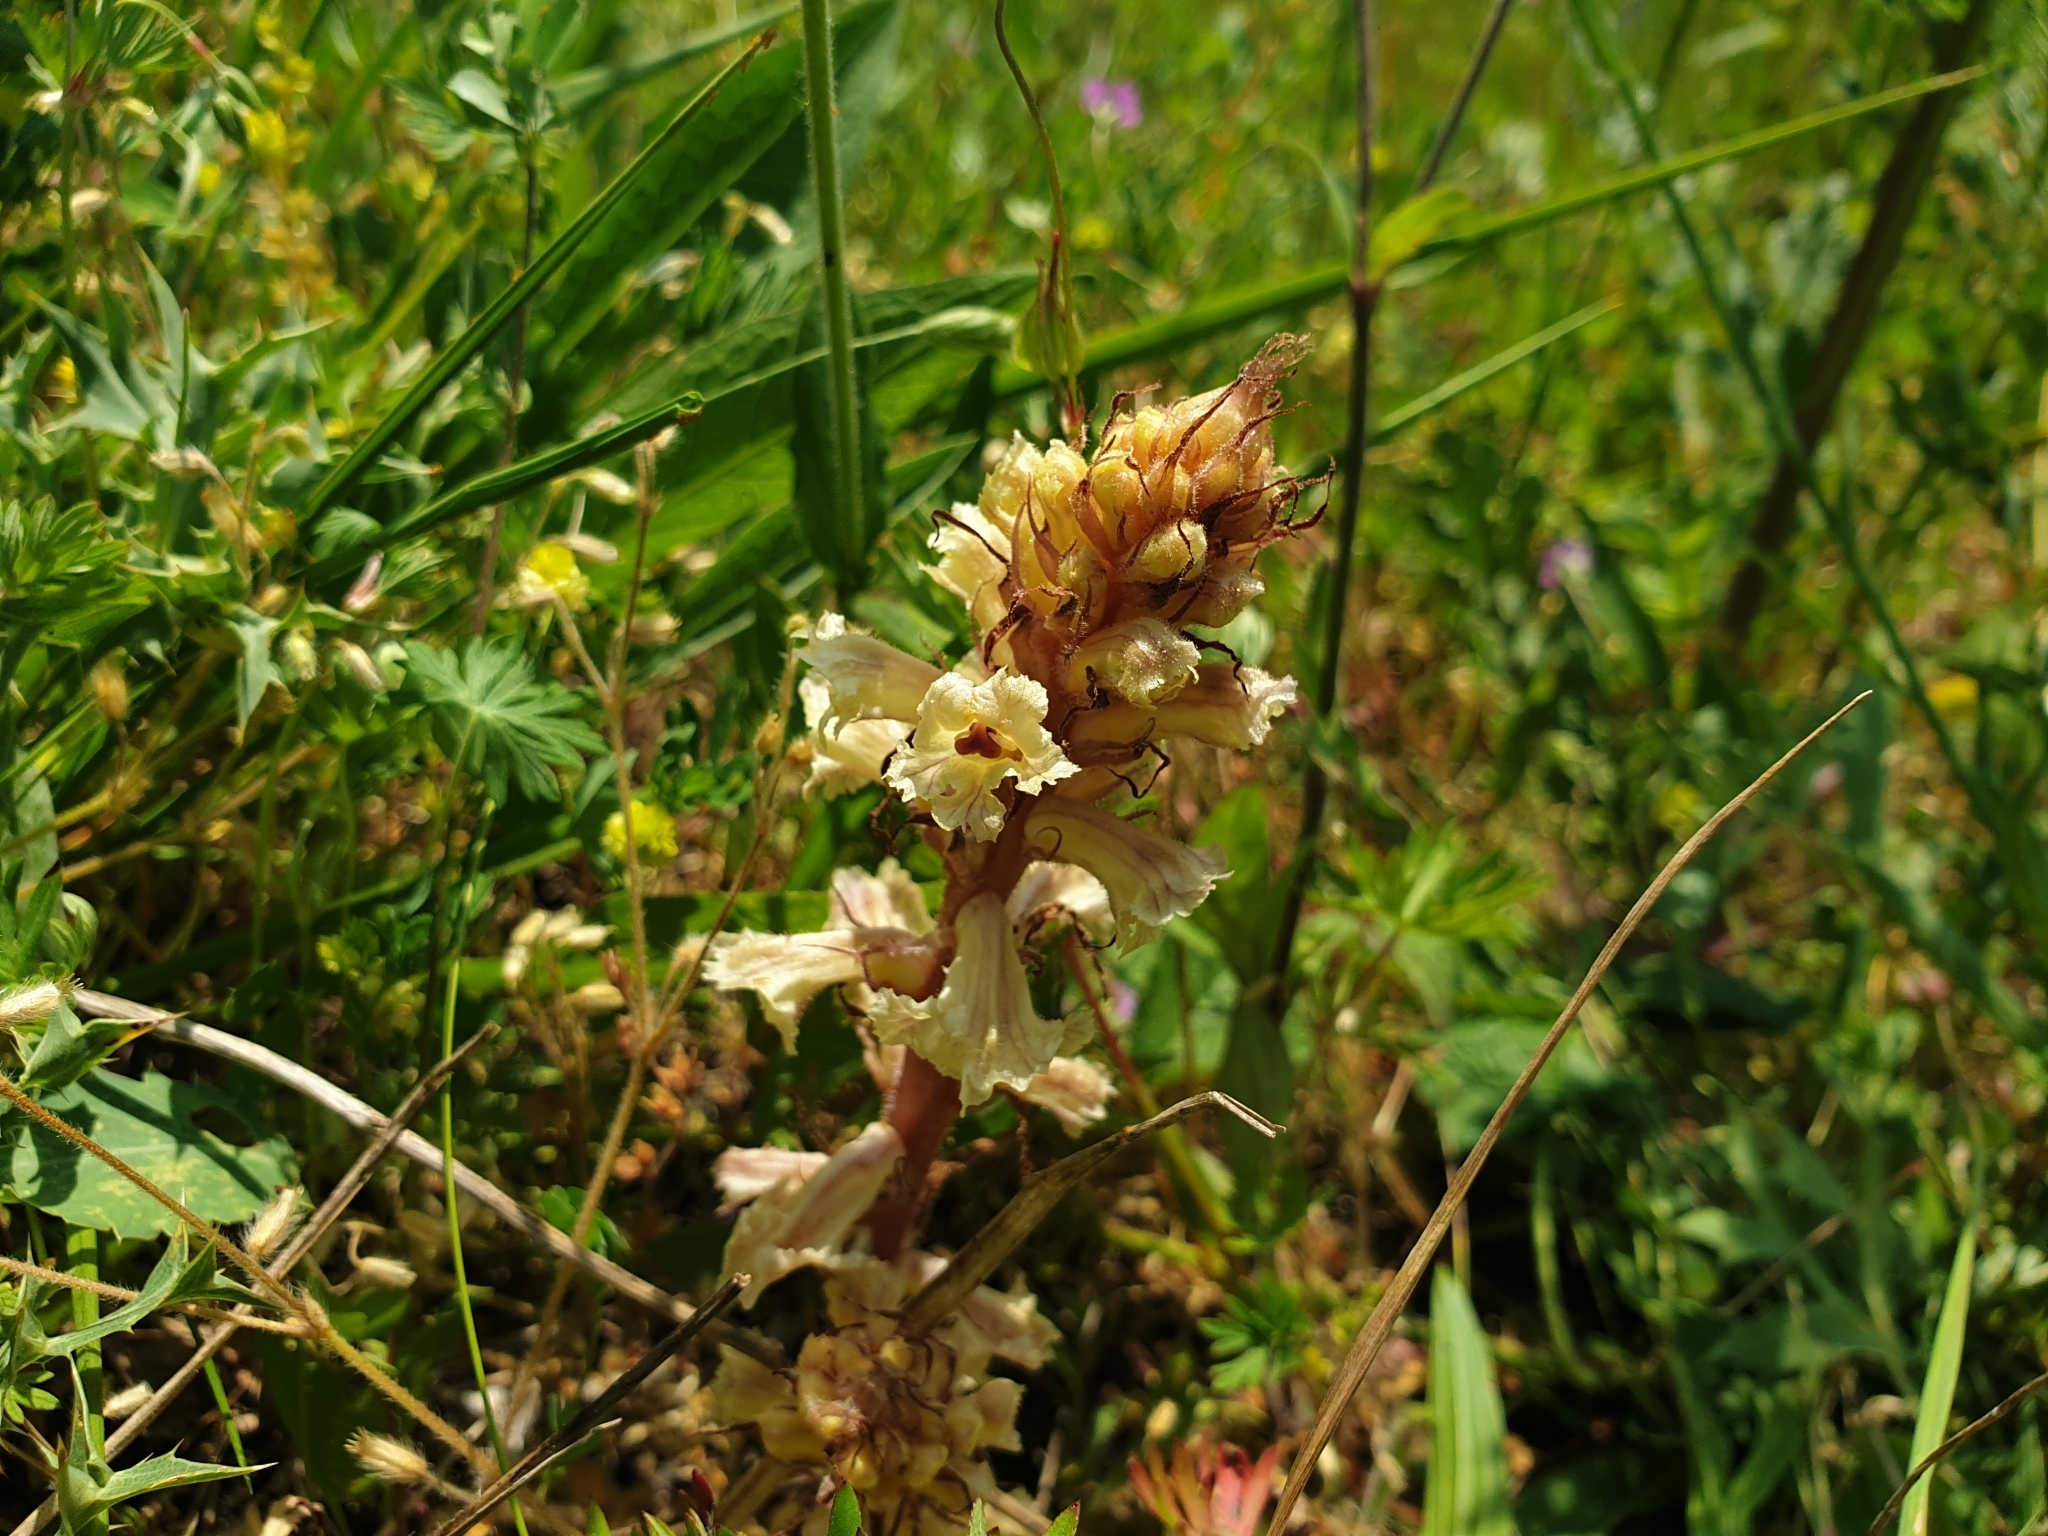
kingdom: Plantae
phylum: Tracheophyta
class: Magnoliopsida
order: Lamiales
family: Orobanchaceae
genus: Orobanche
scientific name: Orobanche amethystea
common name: Amethyst broomrape
